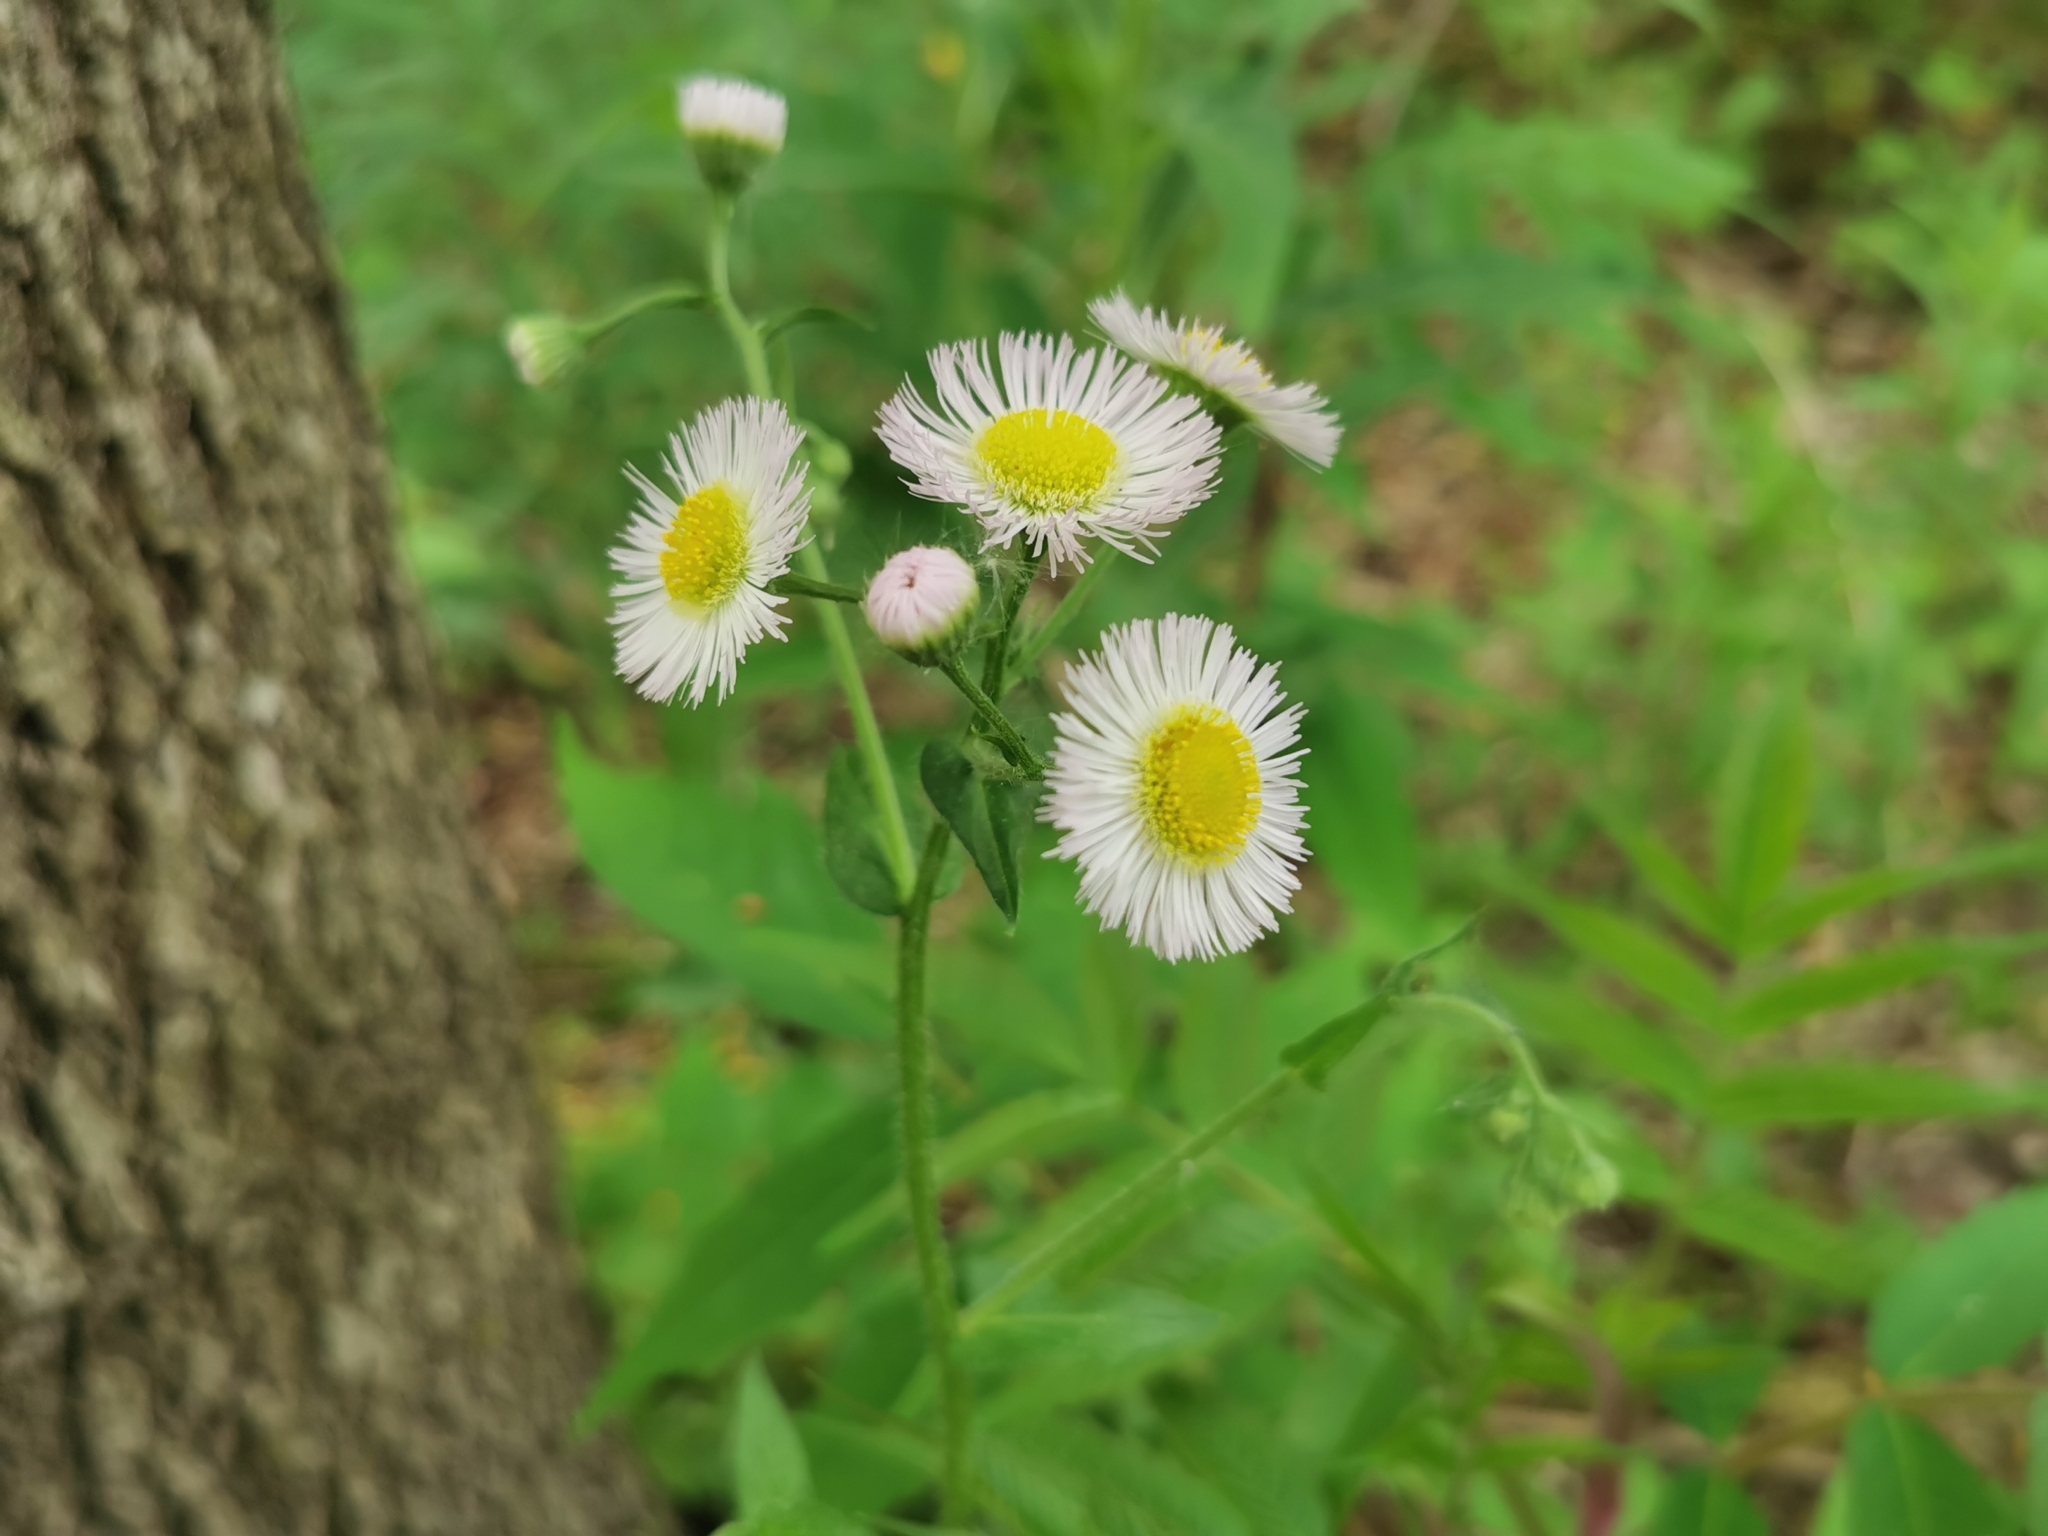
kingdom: Plantae
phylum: Tracheophyta
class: Magnoliopsida
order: Asterales
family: Asteraceae
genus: Erigeron
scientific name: Erigeron philadelphicus
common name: Robin's-plantain
